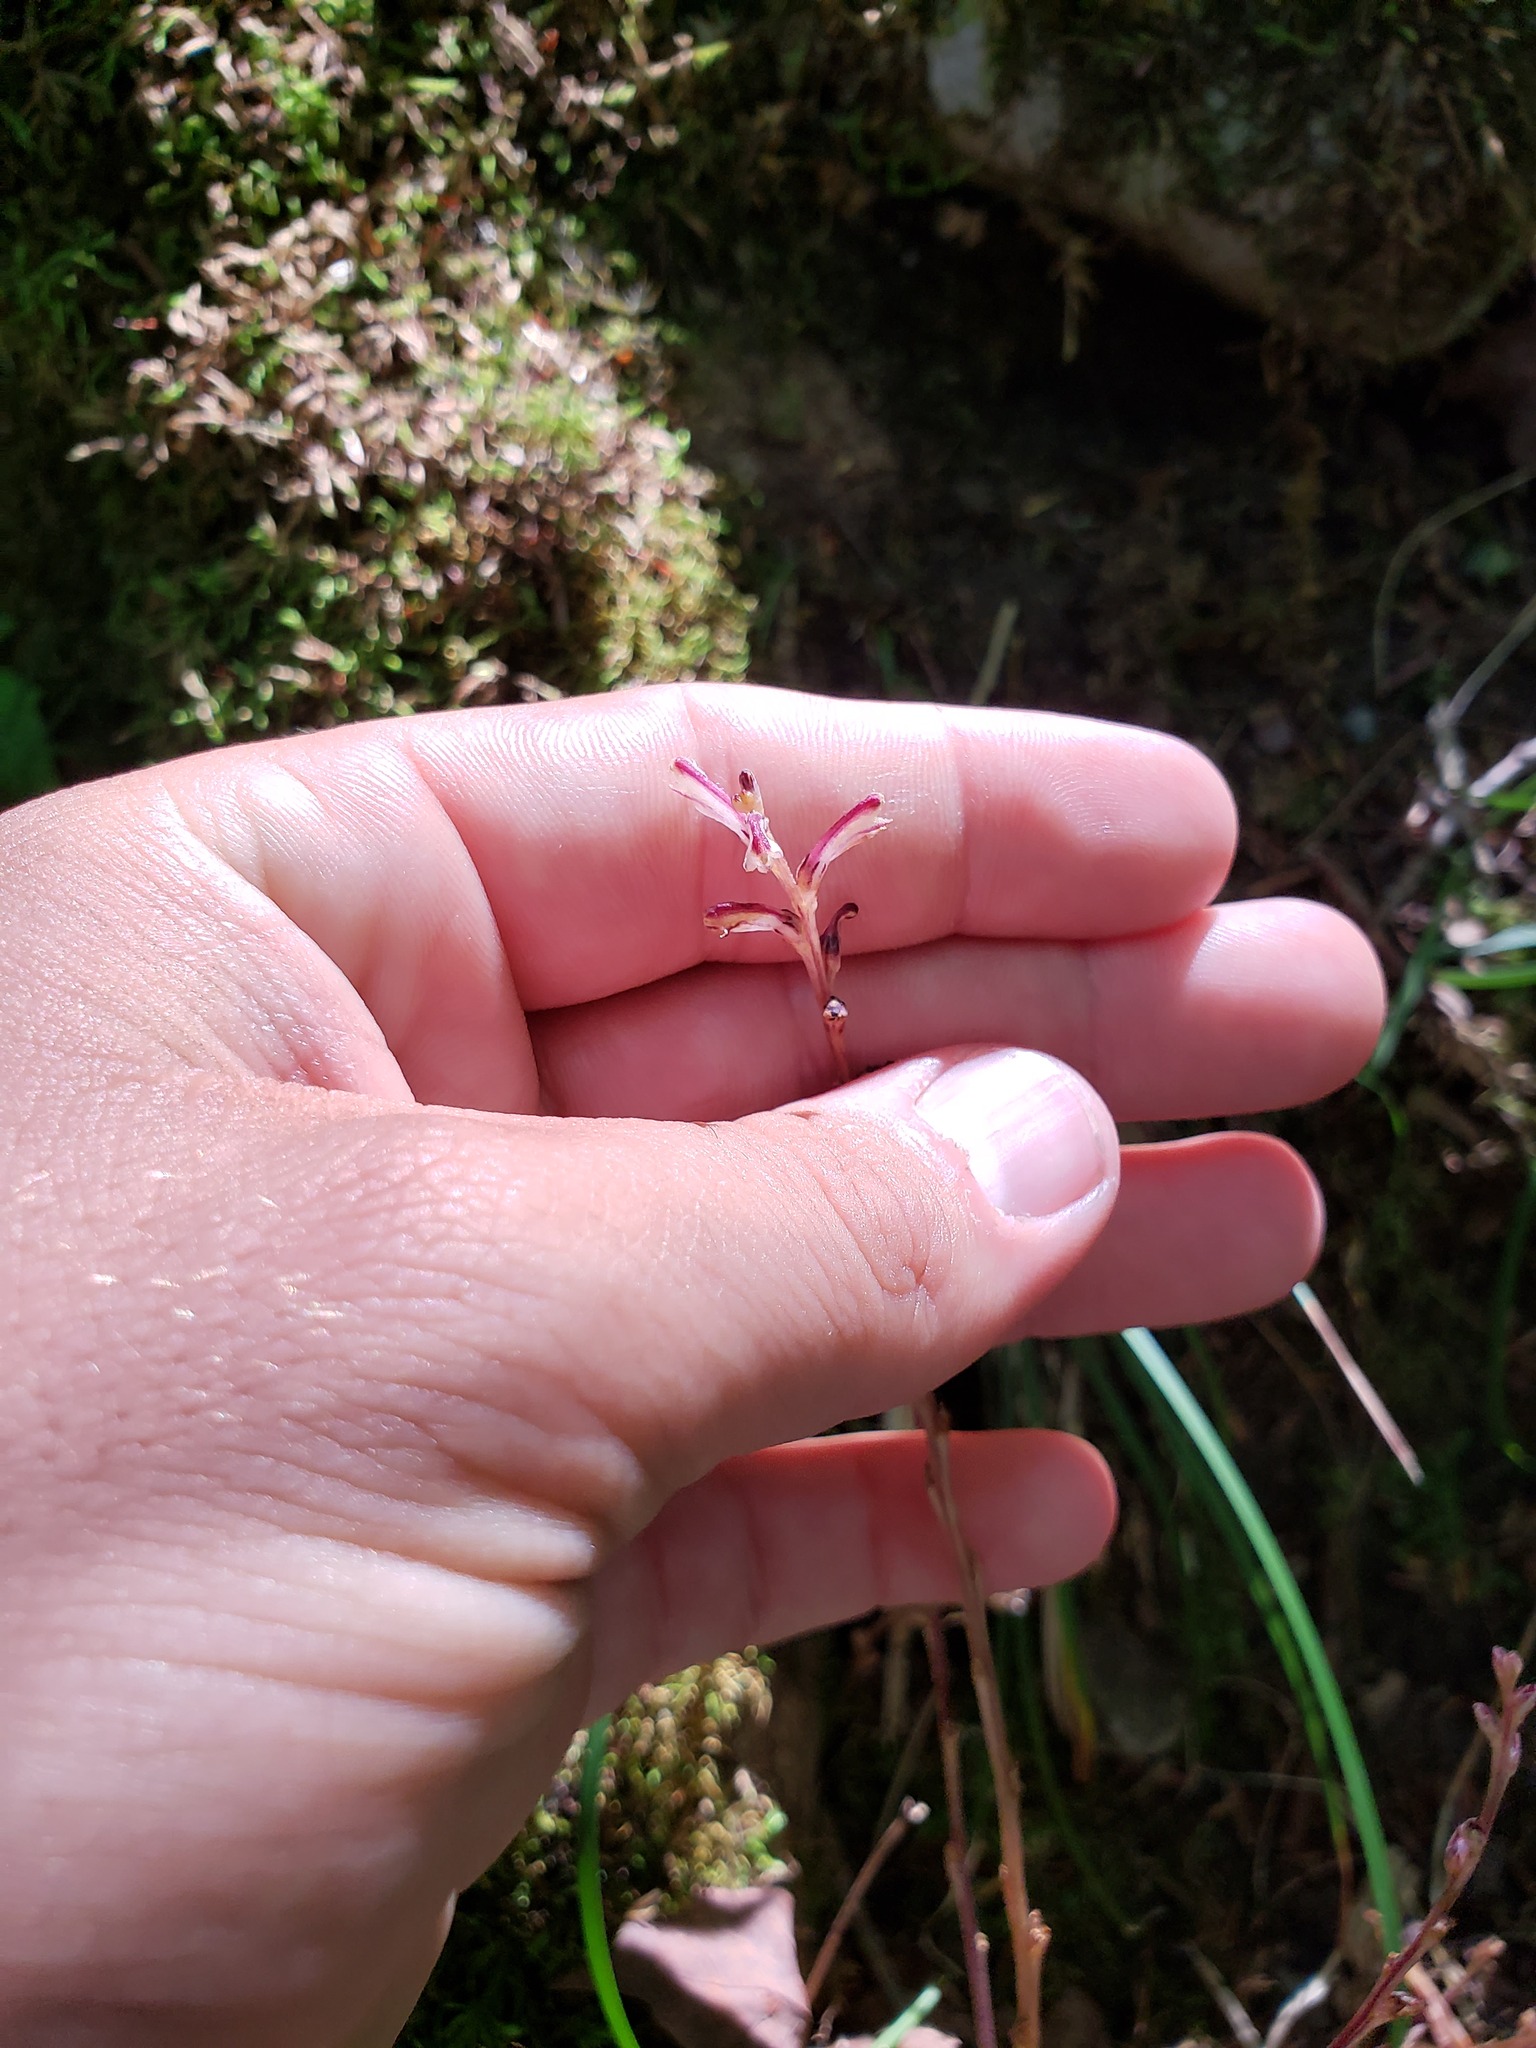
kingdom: Plantae
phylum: Tracheophyta
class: Magnoliopsida
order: Lamiales
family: Orobanchaceae
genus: Epifagus
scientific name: Epifagus virginiana
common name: Beechdrops
